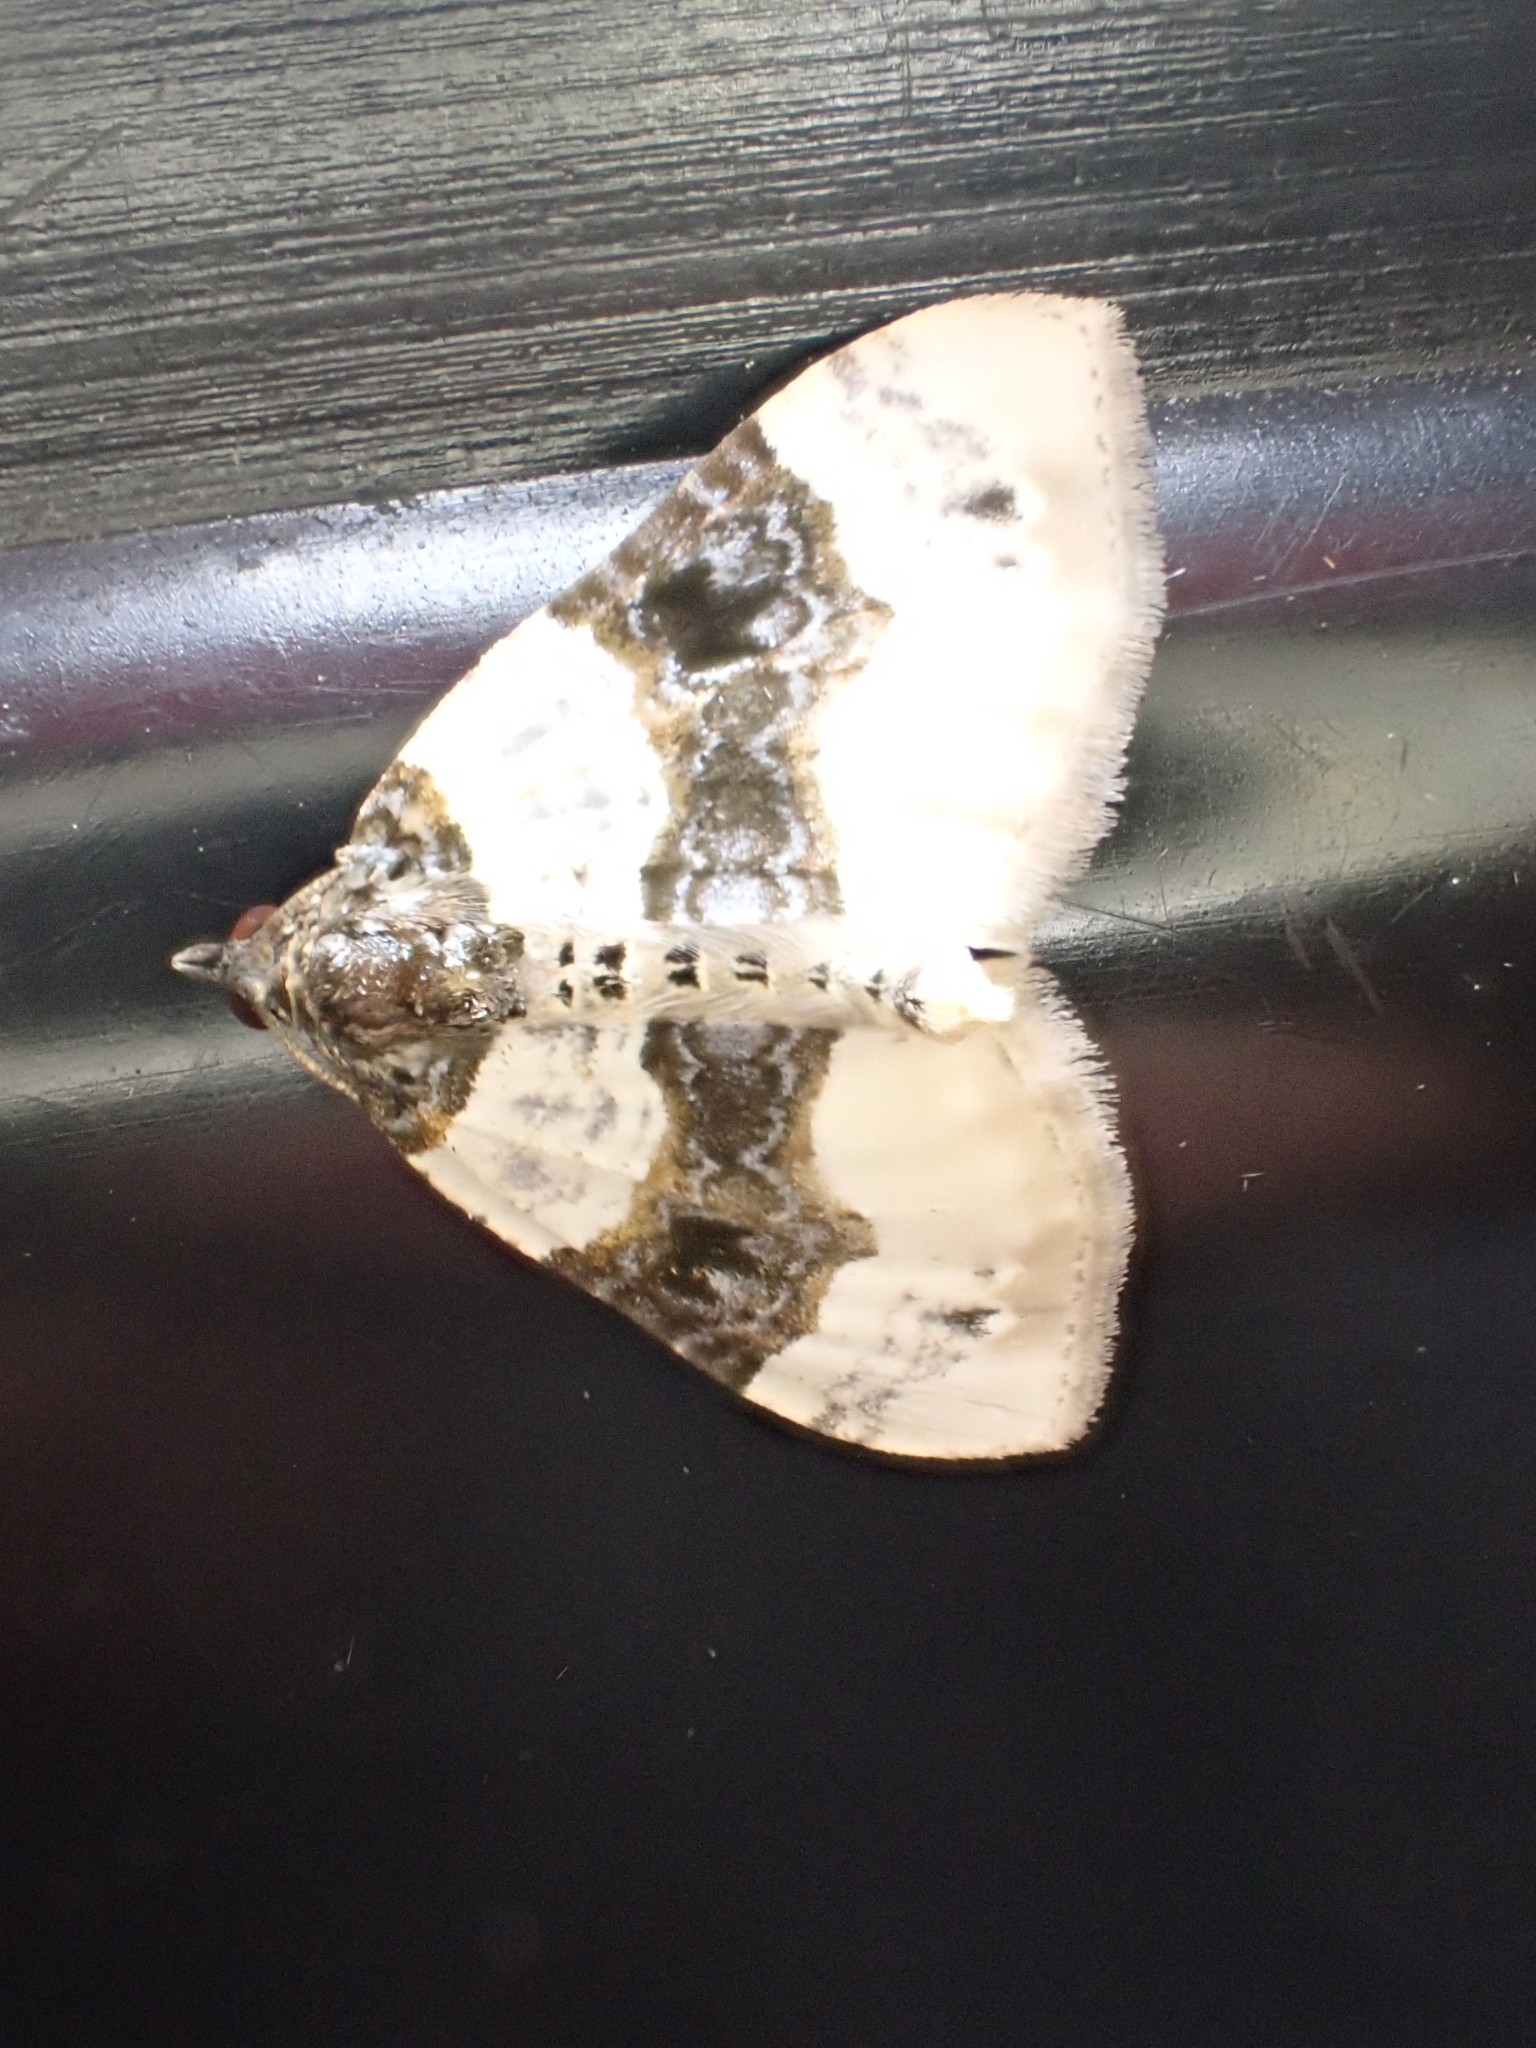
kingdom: Animalia
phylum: Arthropoda
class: Insecta
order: Lepidoptera
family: Geometridae
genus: Cosmorhoe
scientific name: Cosmorhoe ocellata
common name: Purple bar
